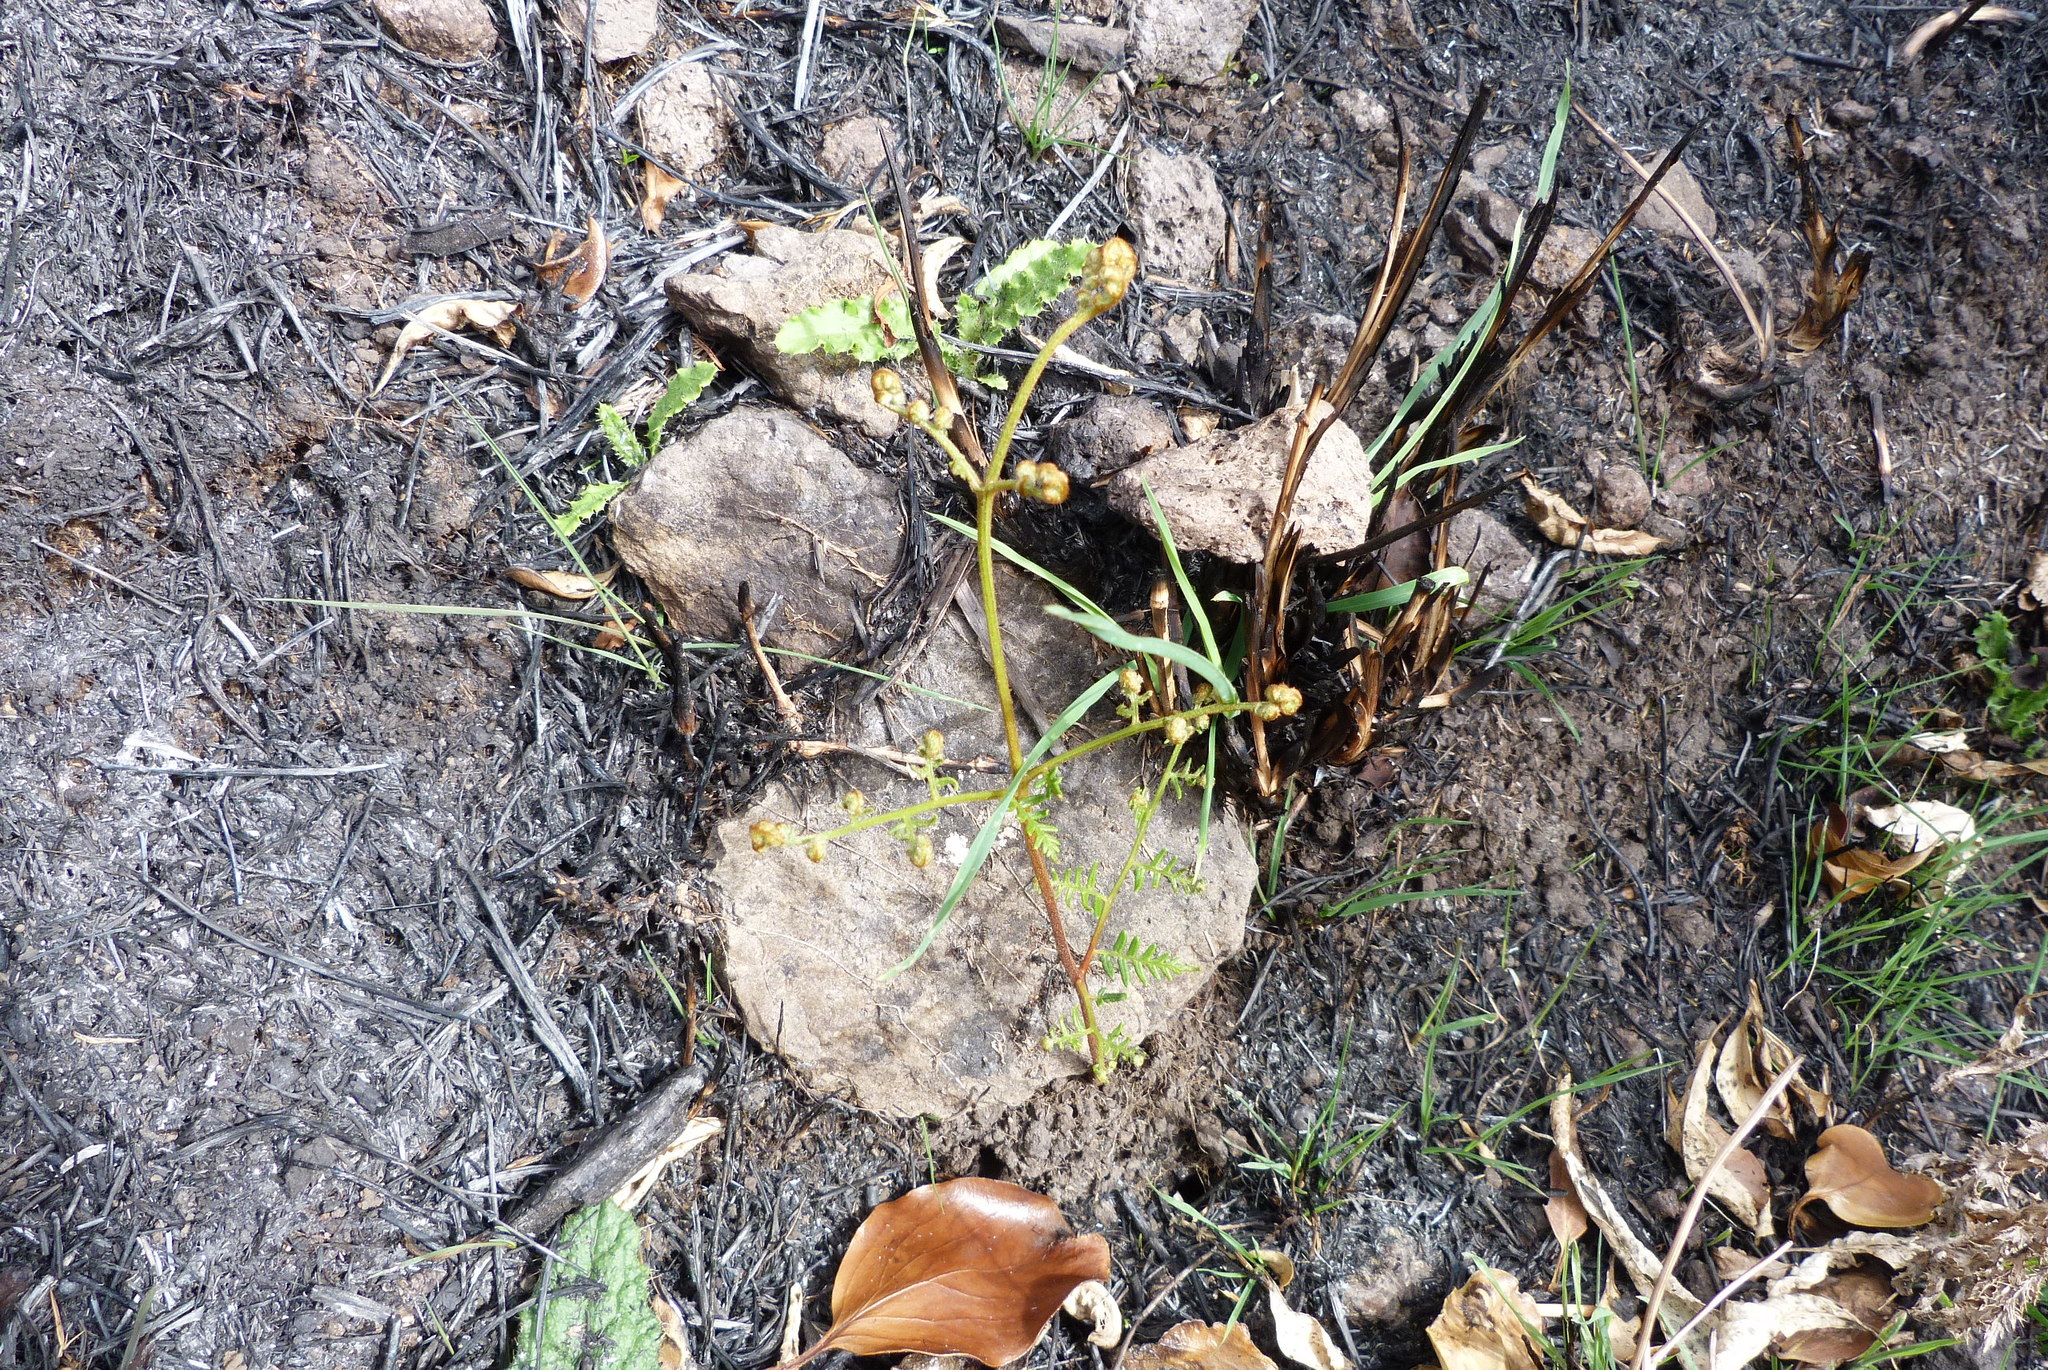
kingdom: Plantae
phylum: Tracheophyta
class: Polypodiopsida
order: Polypodiales
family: Dennstaedtiaceae
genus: Pteridium
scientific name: Pteridium esculentum
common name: Bracken fern
